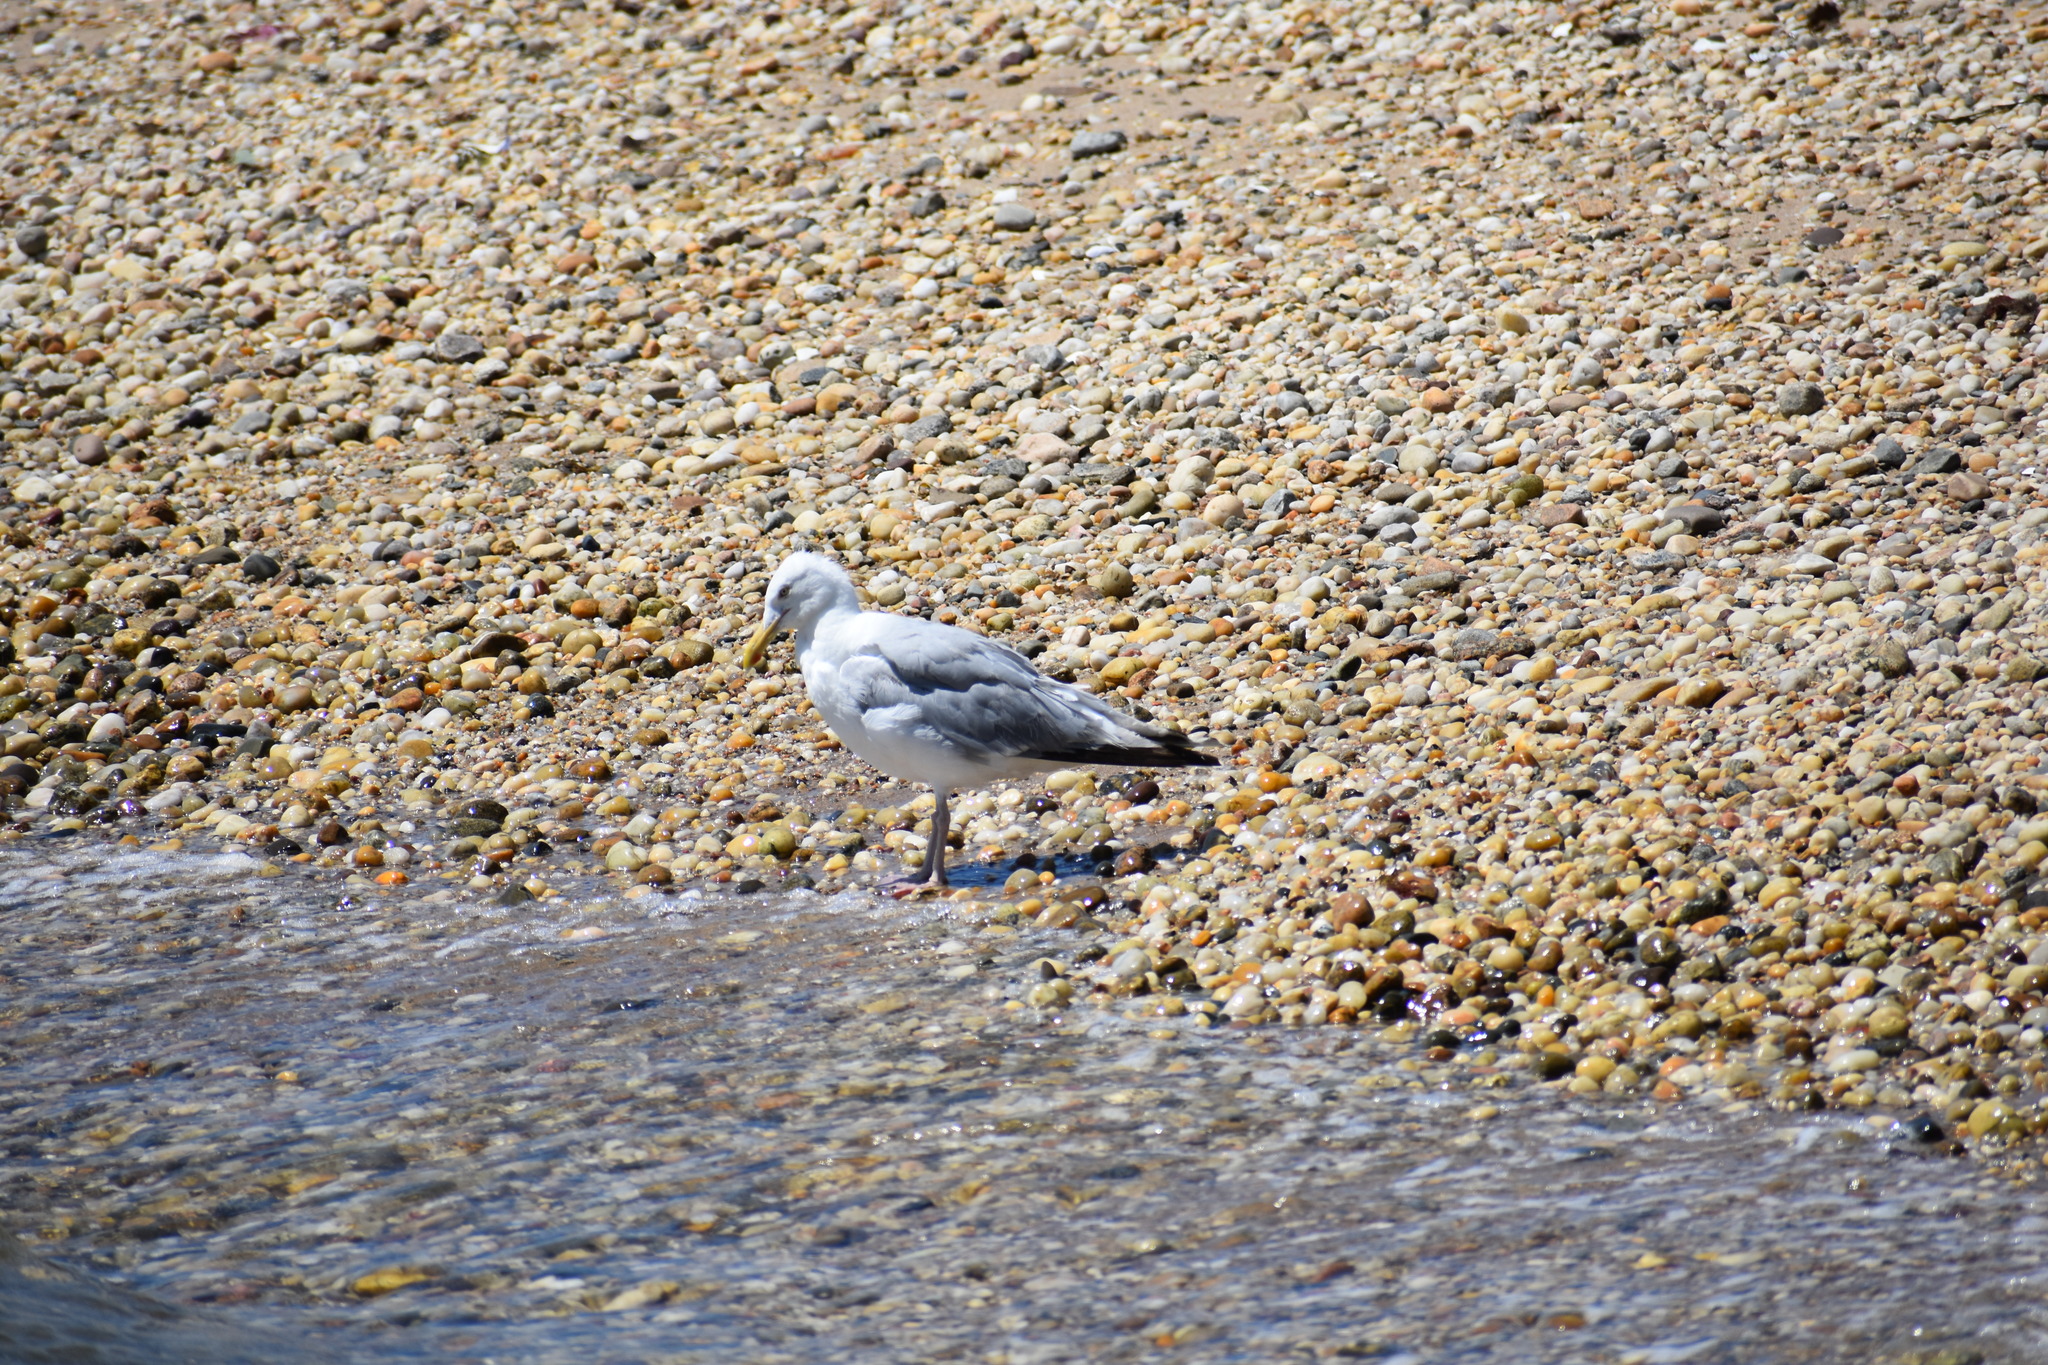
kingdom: Animalia
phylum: Chordata
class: Aves
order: Charadriiformes
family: Laridae
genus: Larus
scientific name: Larus argentatus
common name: Herring gull
